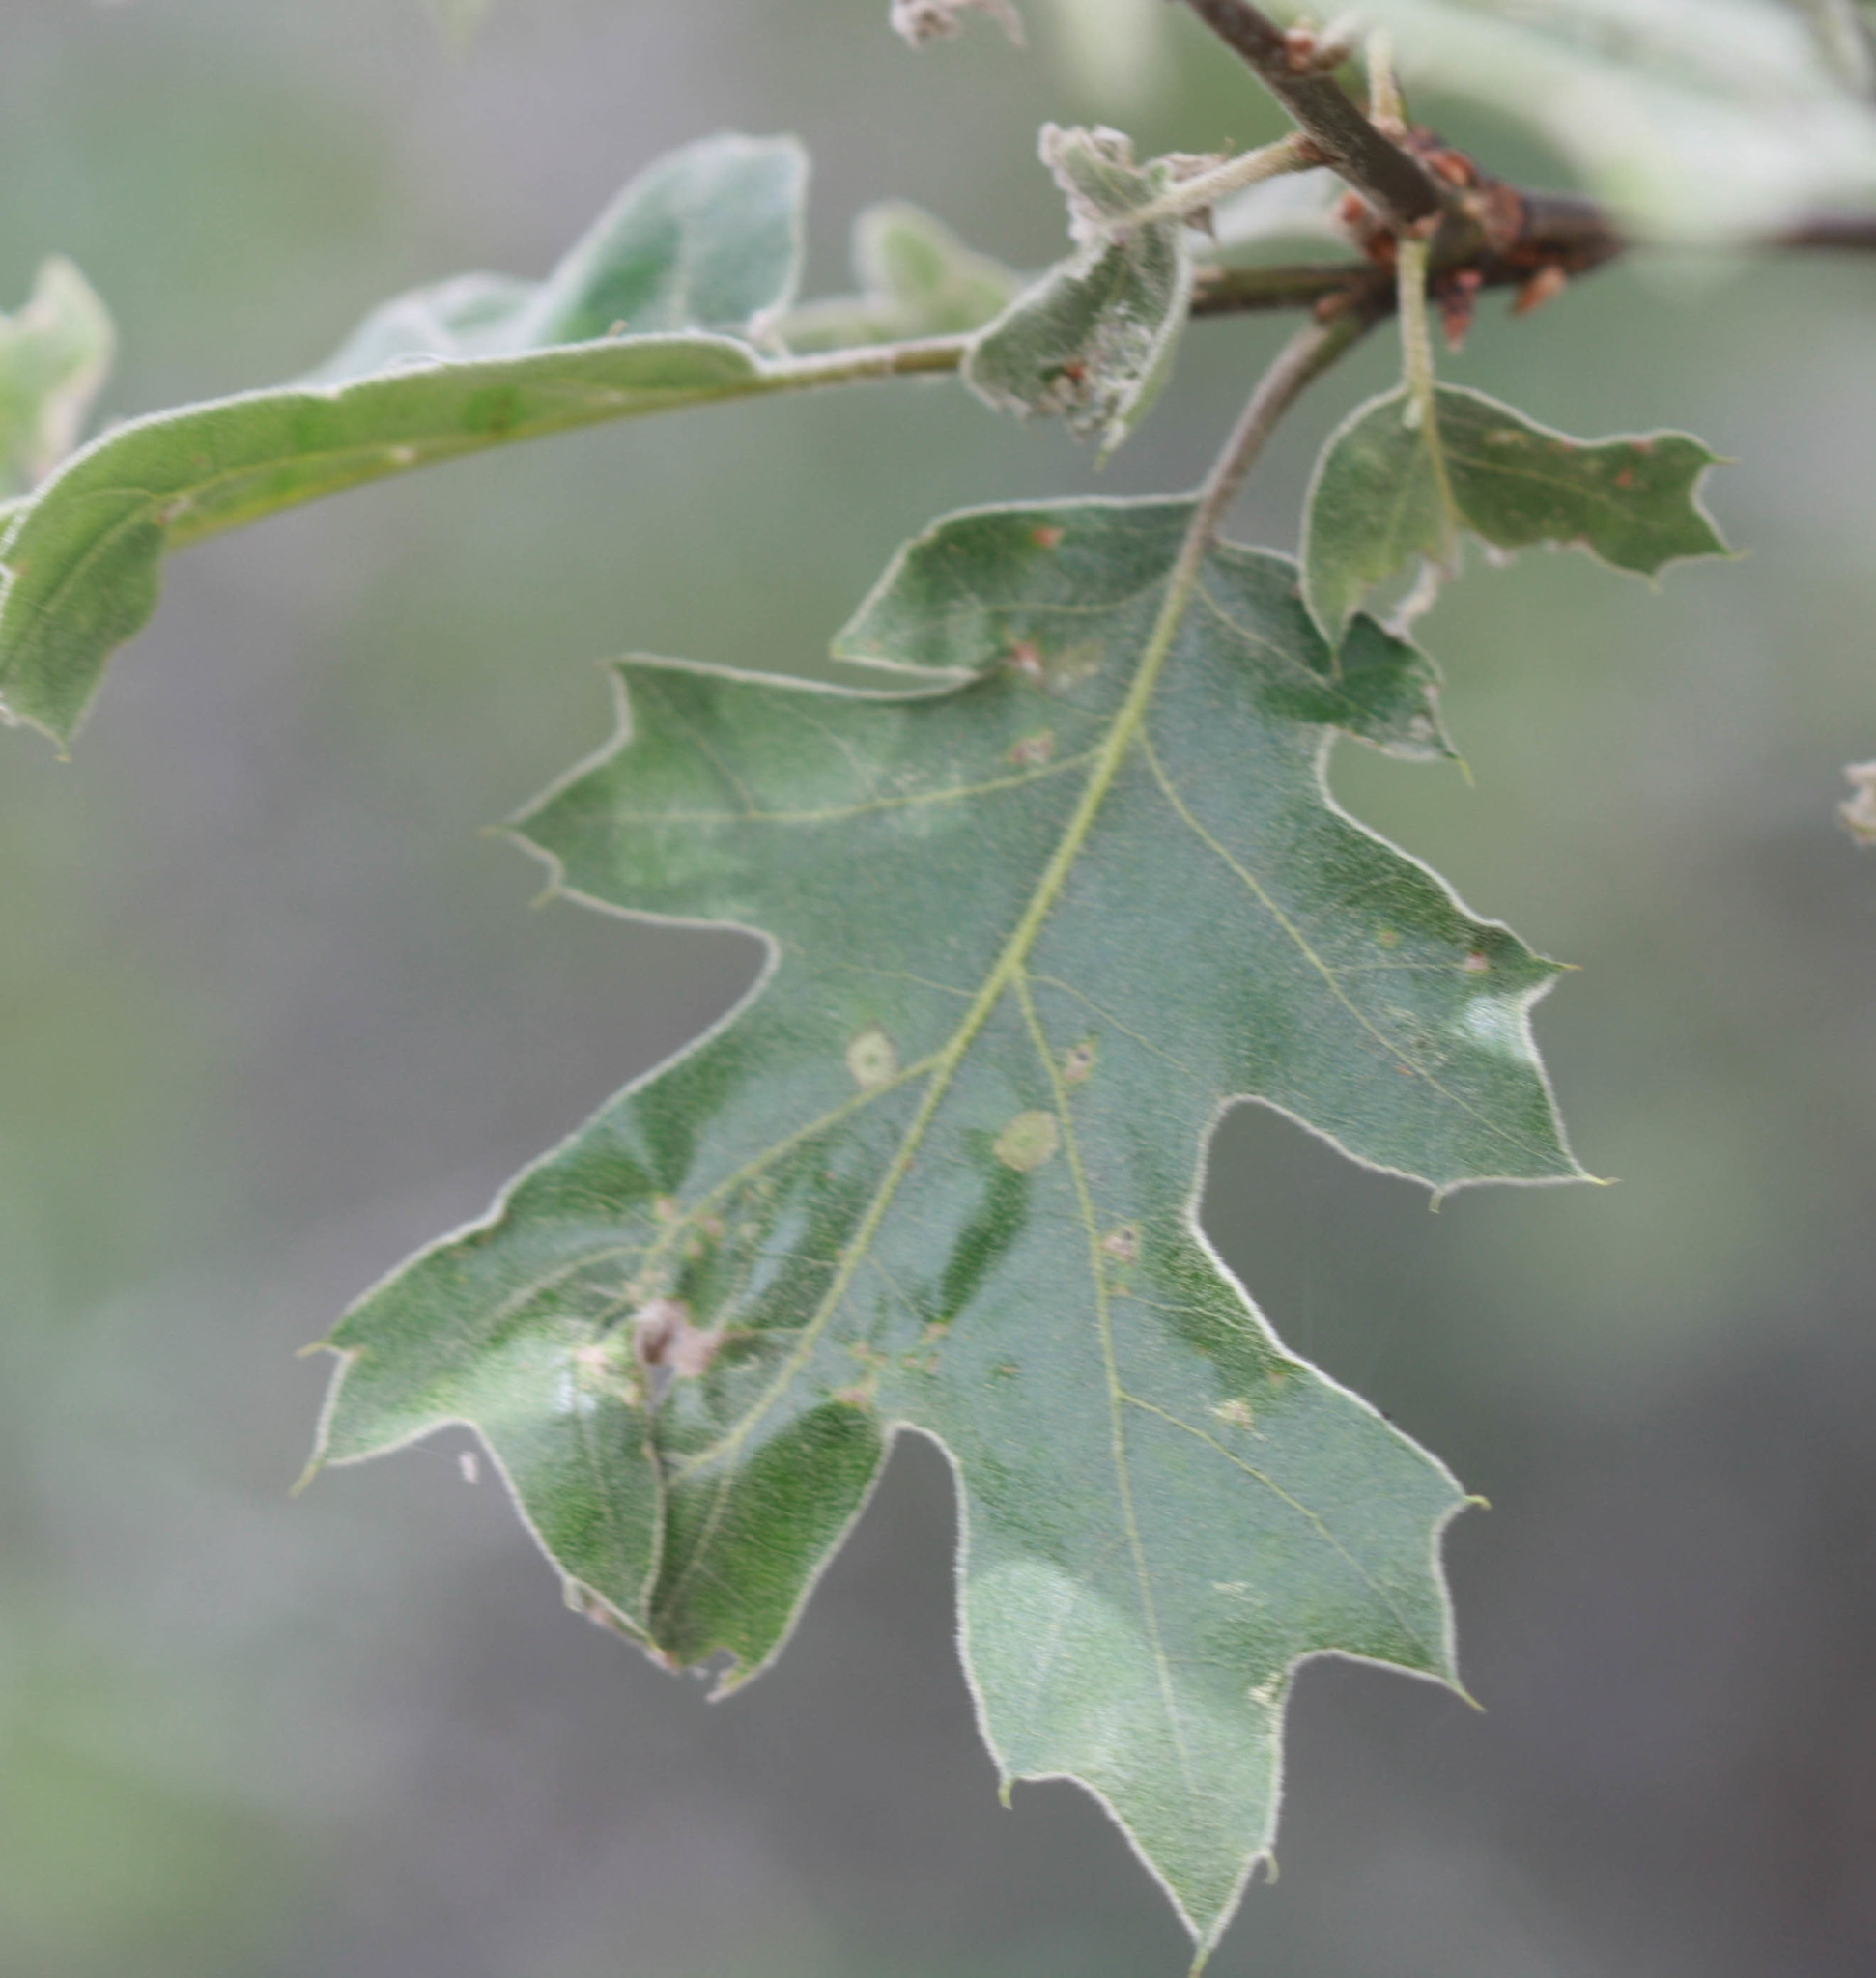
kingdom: Plantae
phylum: Tracheophyta
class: Magnoliopsida
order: Fagales
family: Fagaceae
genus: Quercus
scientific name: Quercus kelloggii
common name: California black oak
